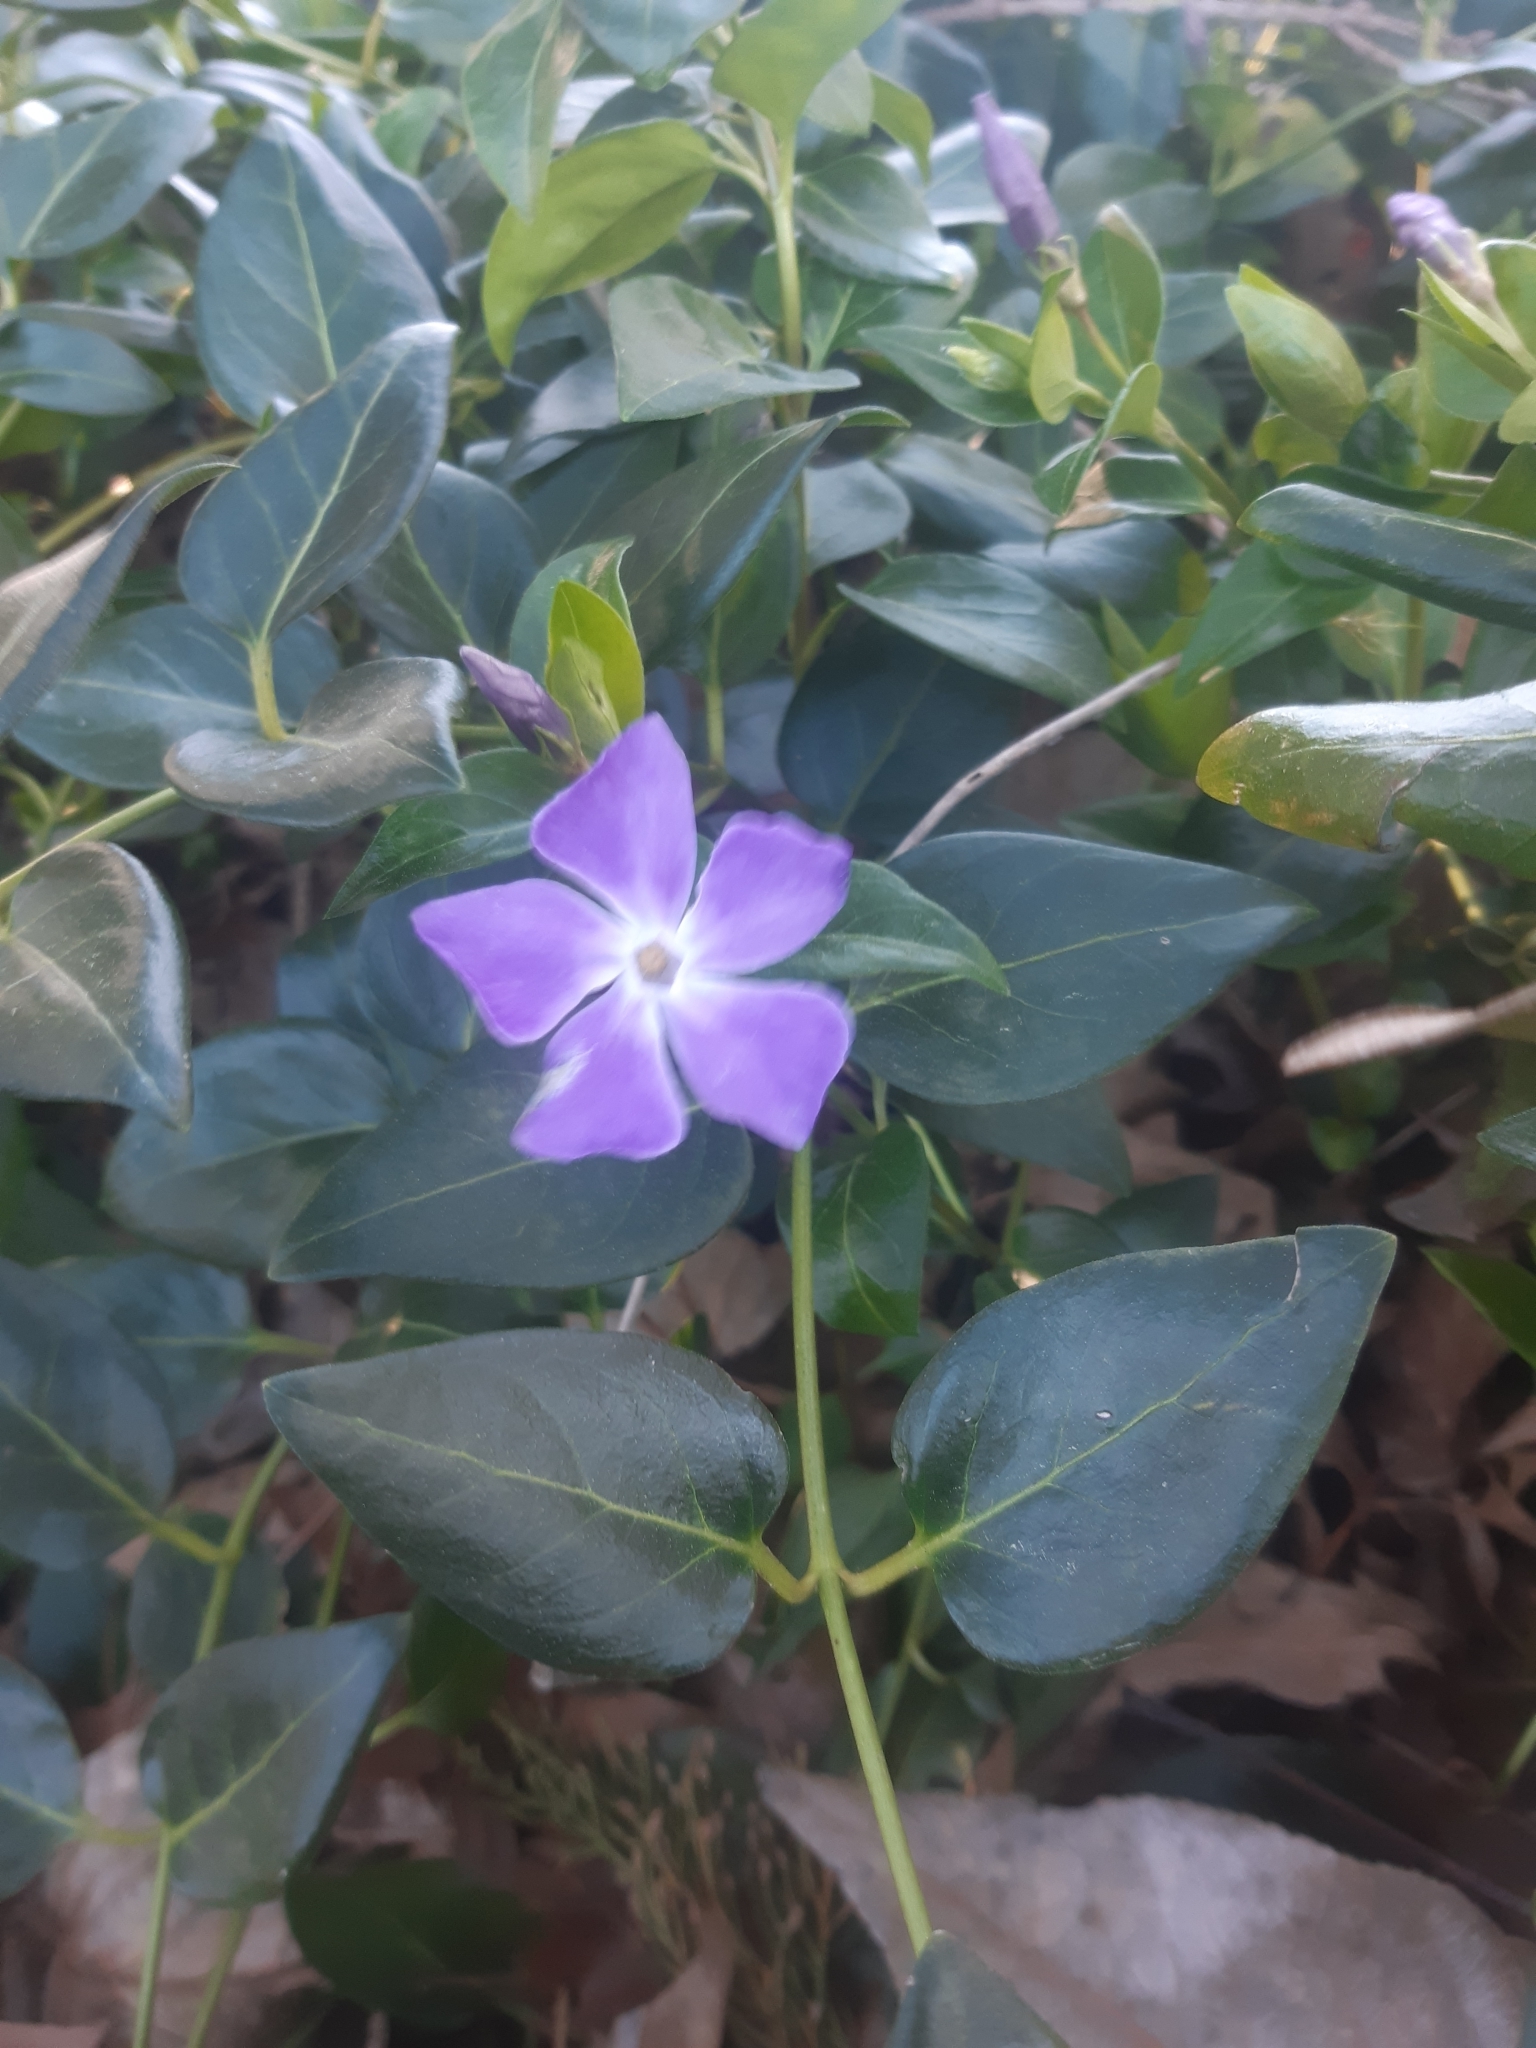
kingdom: Plantae
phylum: Tracheophyta
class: Magnoliopsida
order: Gentianales
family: Apocynaceae
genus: Vinca
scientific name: Vinca major
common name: Greater periwinkle
